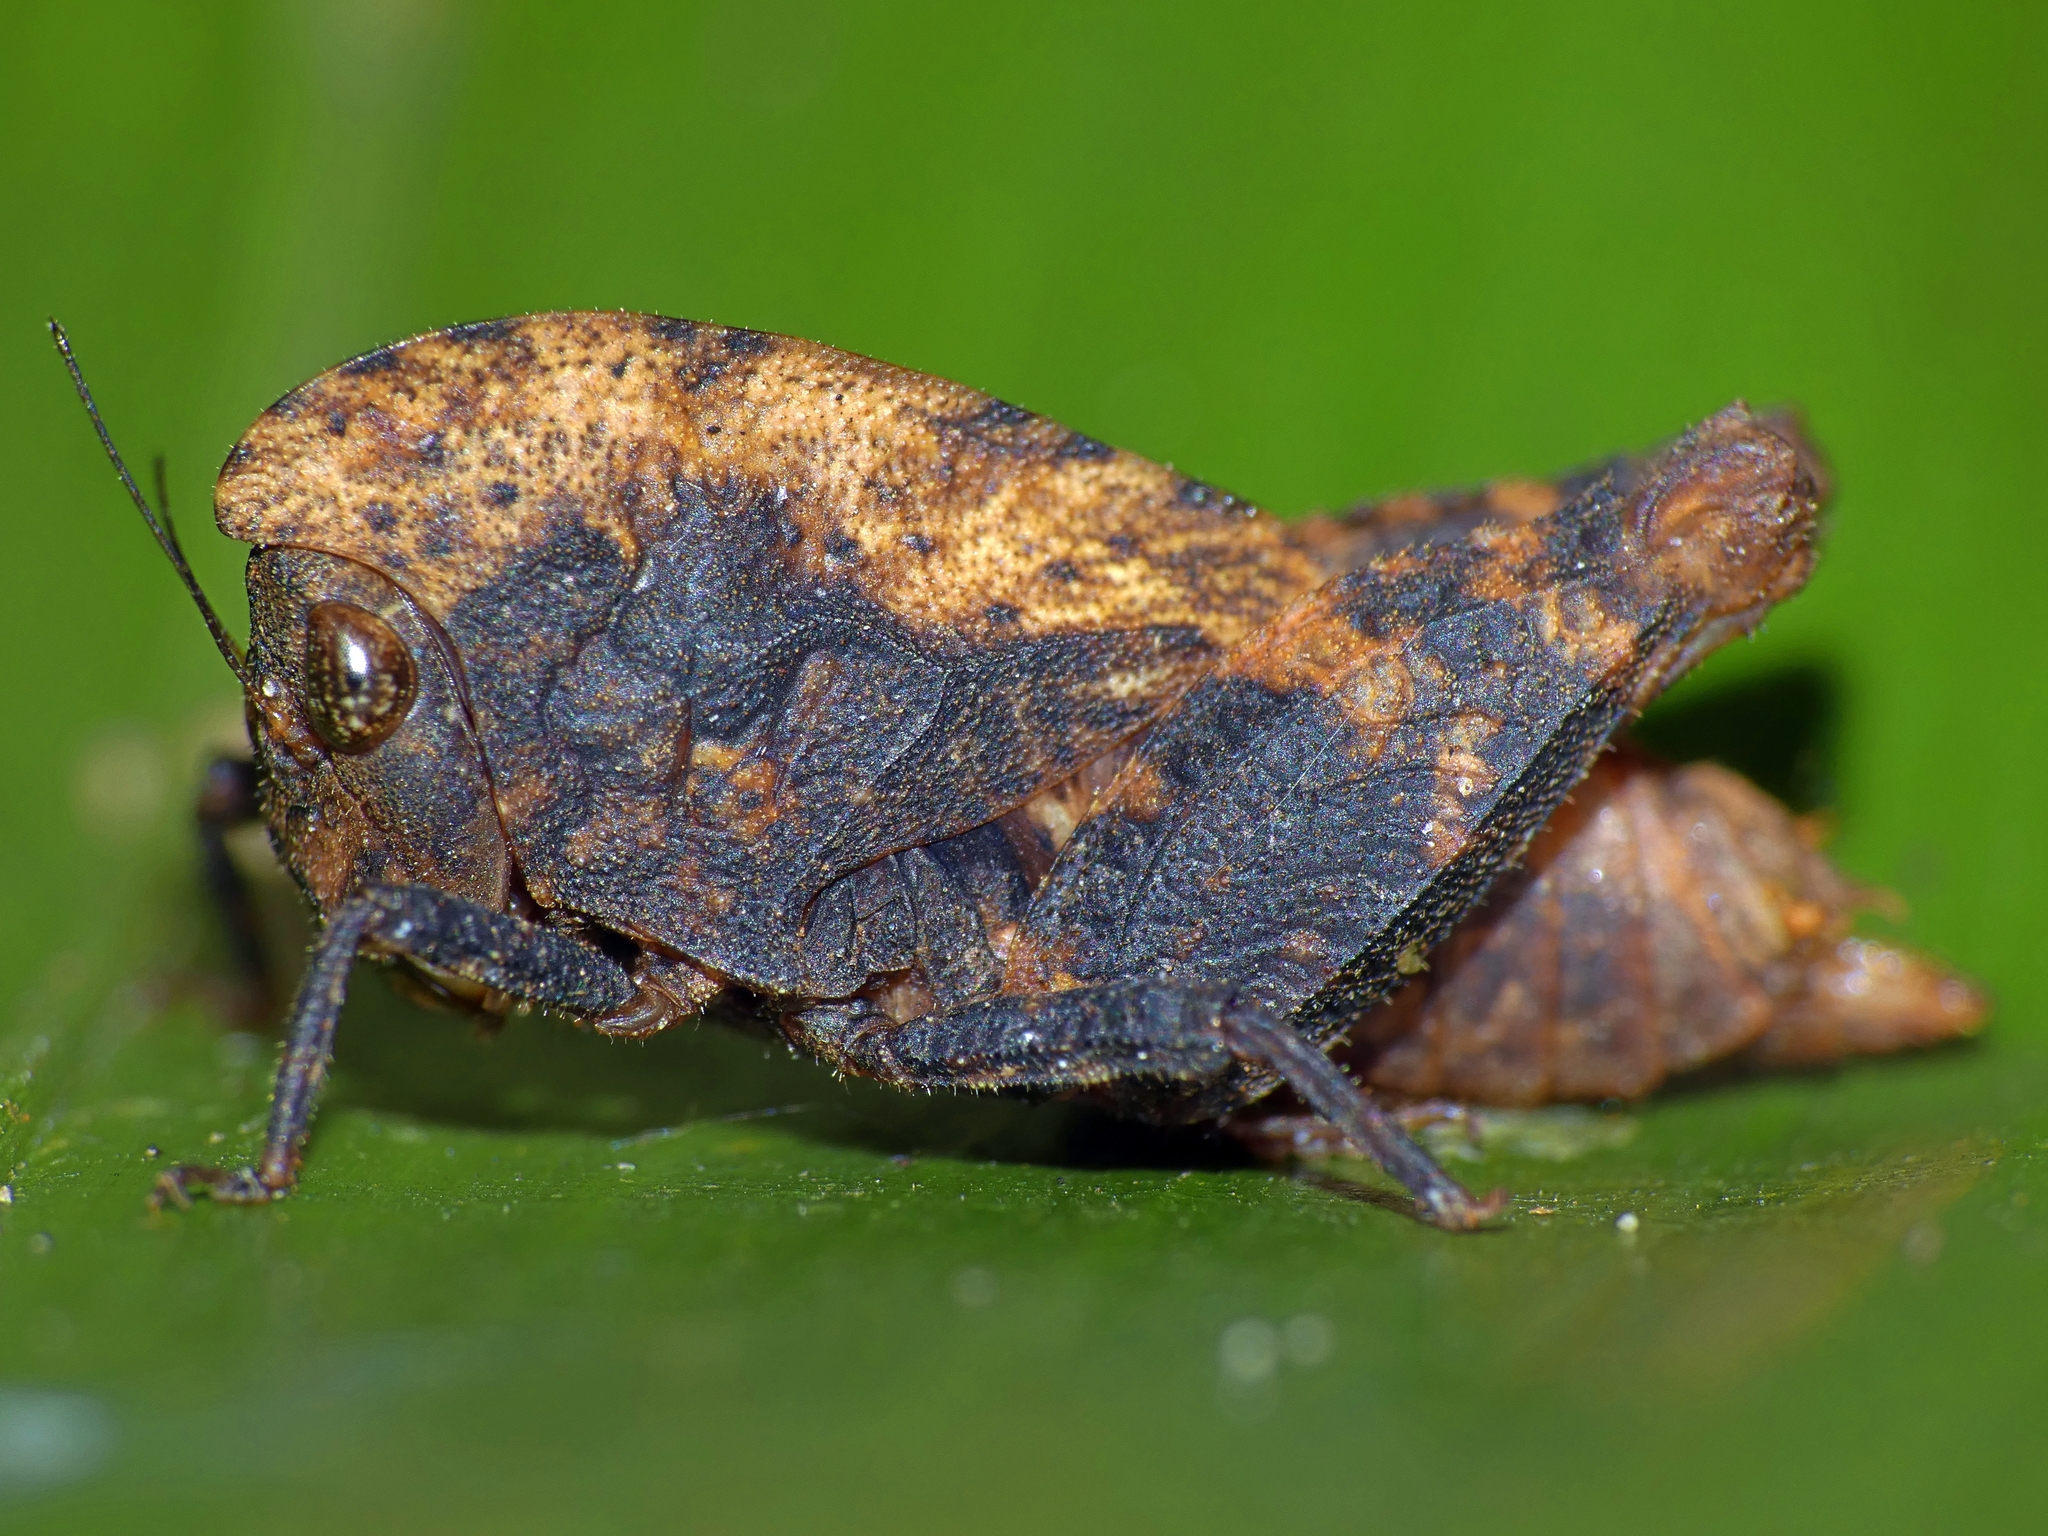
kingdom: Animalia
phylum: Arthropoda
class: Insecta
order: Orthoptera
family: Tetrigidae
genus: Selivinga
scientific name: Selivinga tribulata
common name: Tribulation helmed groundhopper
